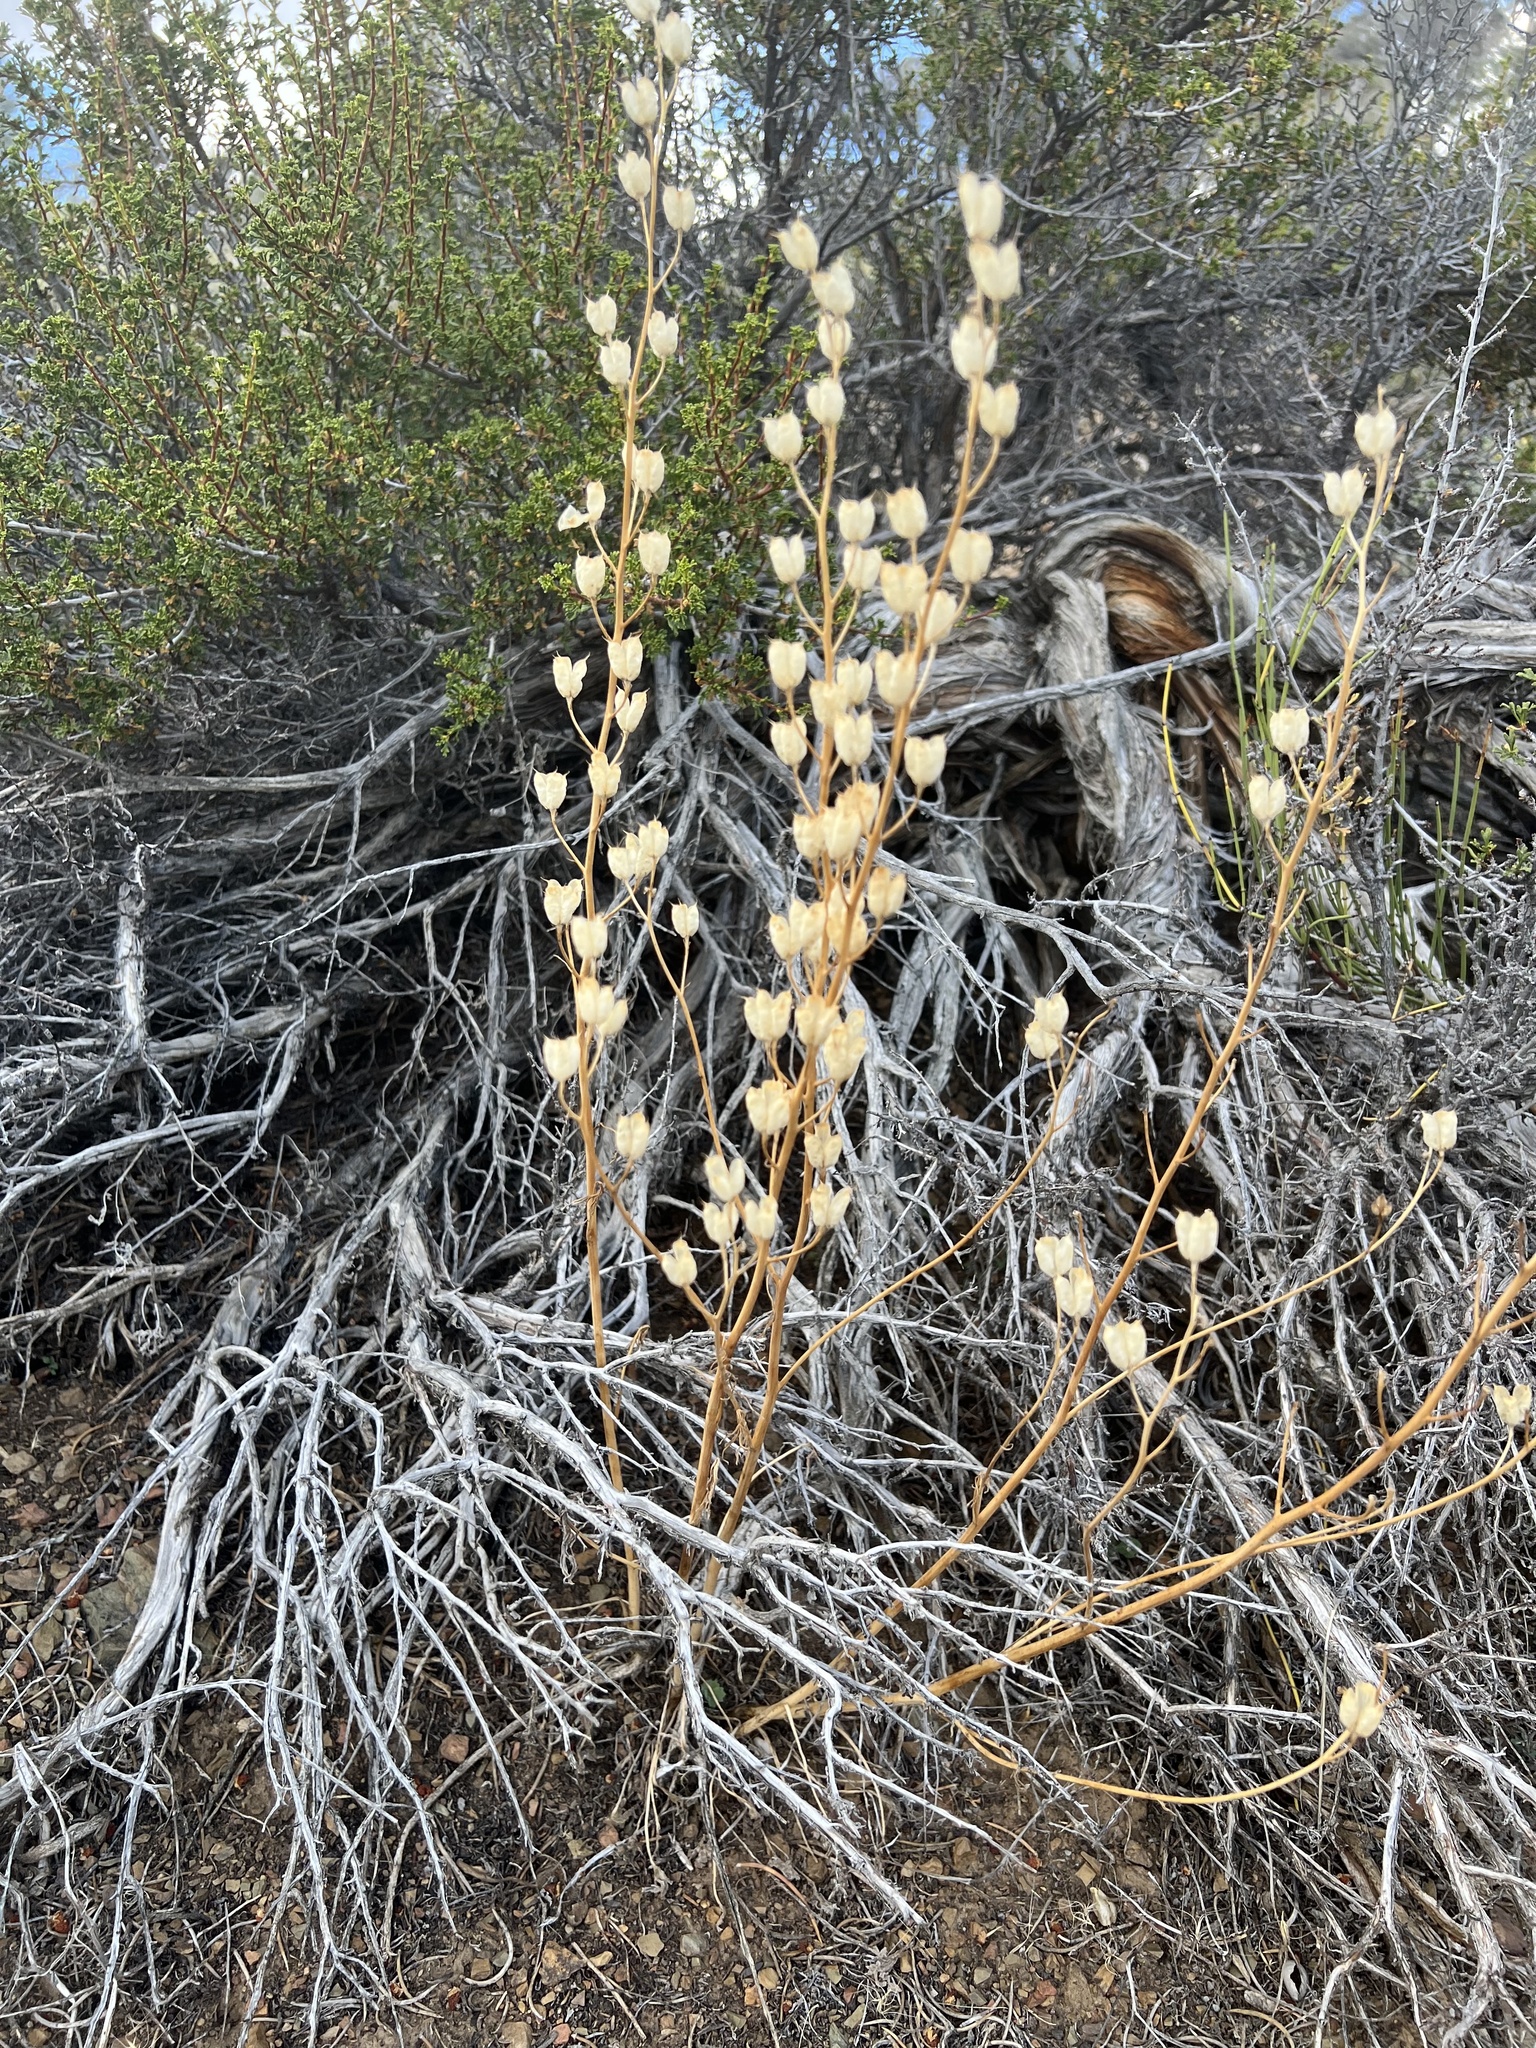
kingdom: Plantae
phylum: Tracheophyta
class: Magnoliopsida
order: Ranunculales
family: Ranunculaceae
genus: Delphinium
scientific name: Delphinium parishii
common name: Apache larkspur
